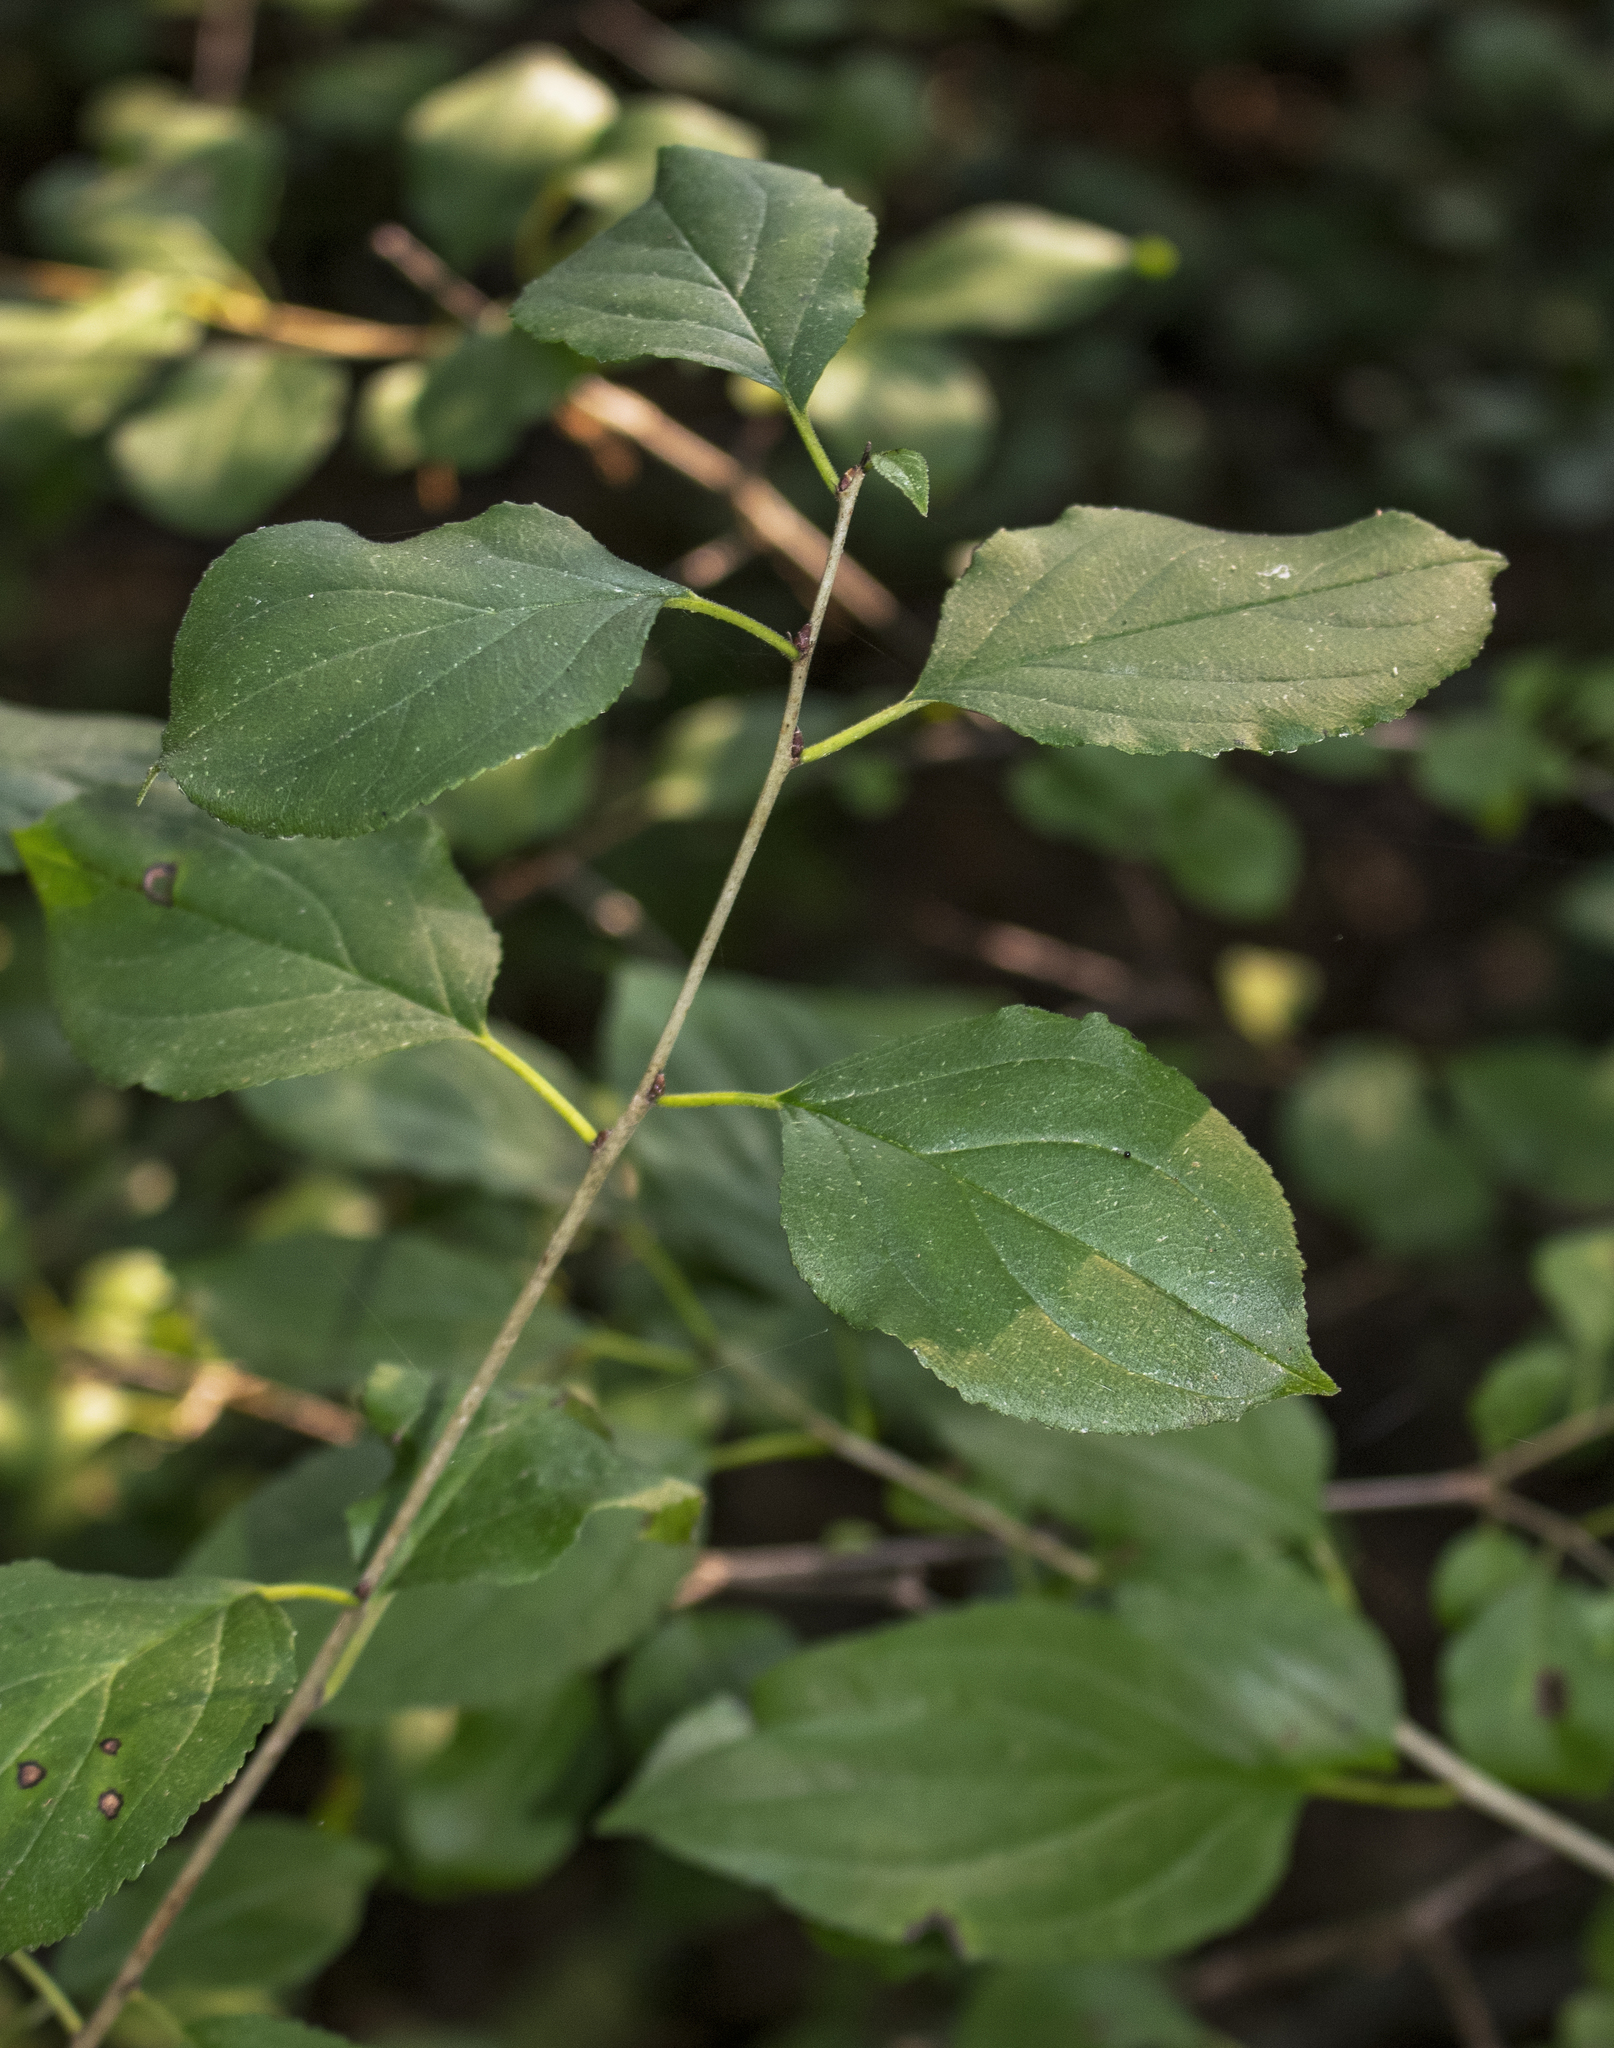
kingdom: Plantae
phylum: Tracheophyta
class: Magnoliopsida
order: Rosales
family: Rhamnaceae
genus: Rhamnus
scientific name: Rhamnus cathartica
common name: Common buckthorn
